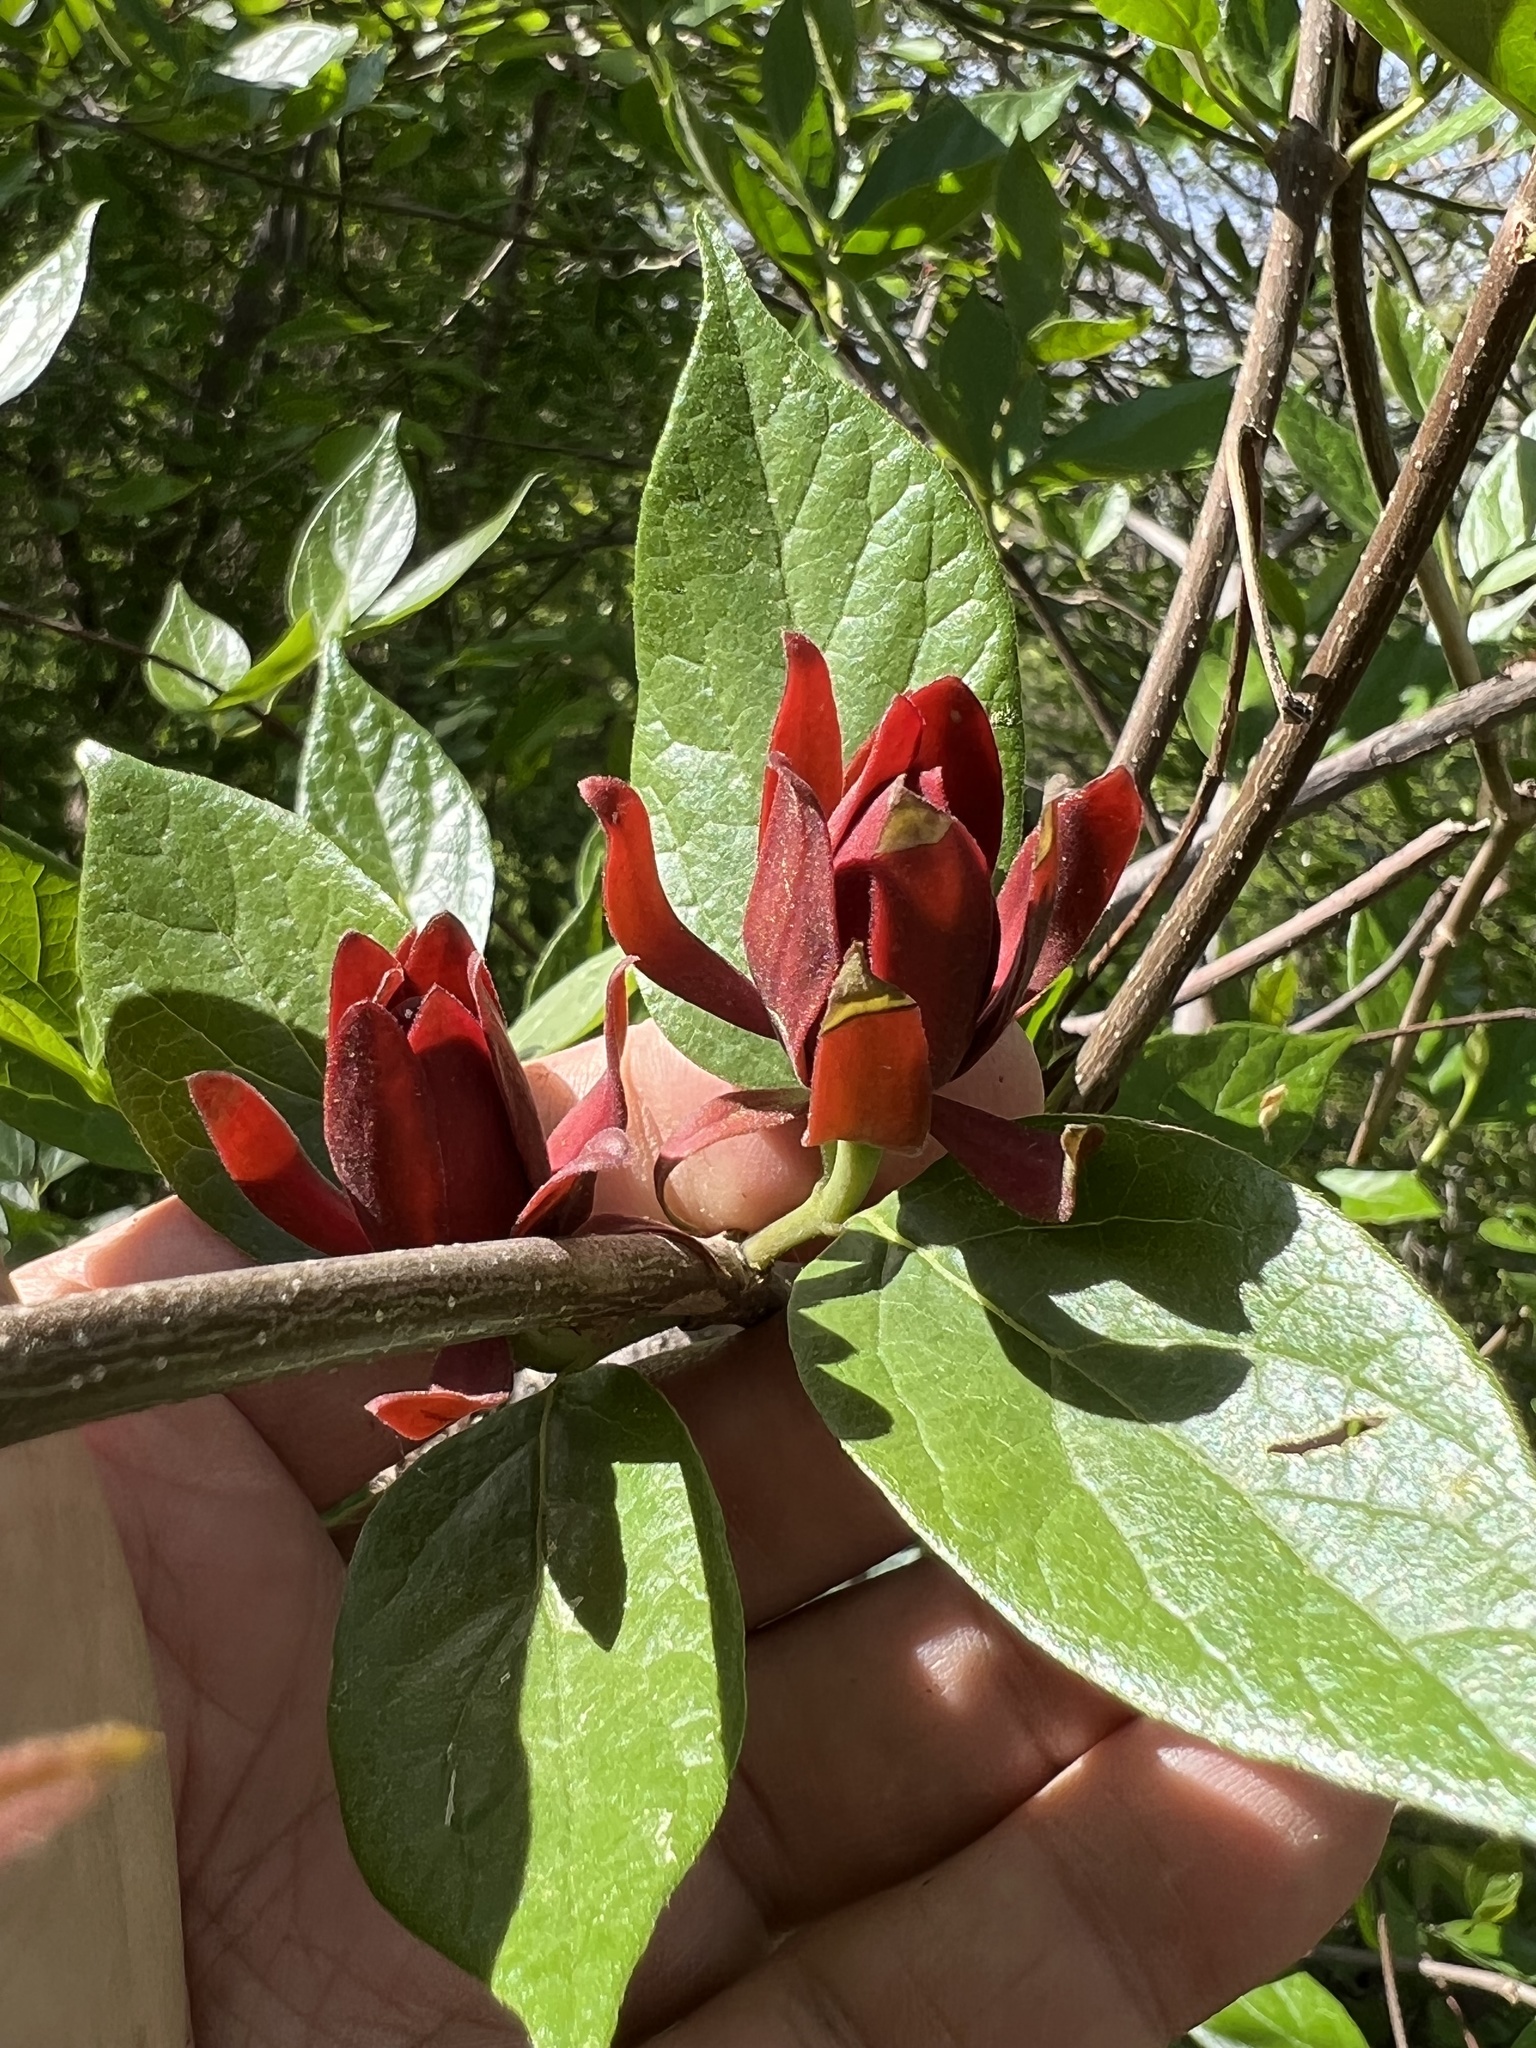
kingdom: Plantae
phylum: Tracheophyta
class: Magnoliopsida
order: Laurales
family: Calycanthaceae
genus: Calycanthus
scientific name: Calycanthus floridus
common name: Carolina-allspice
